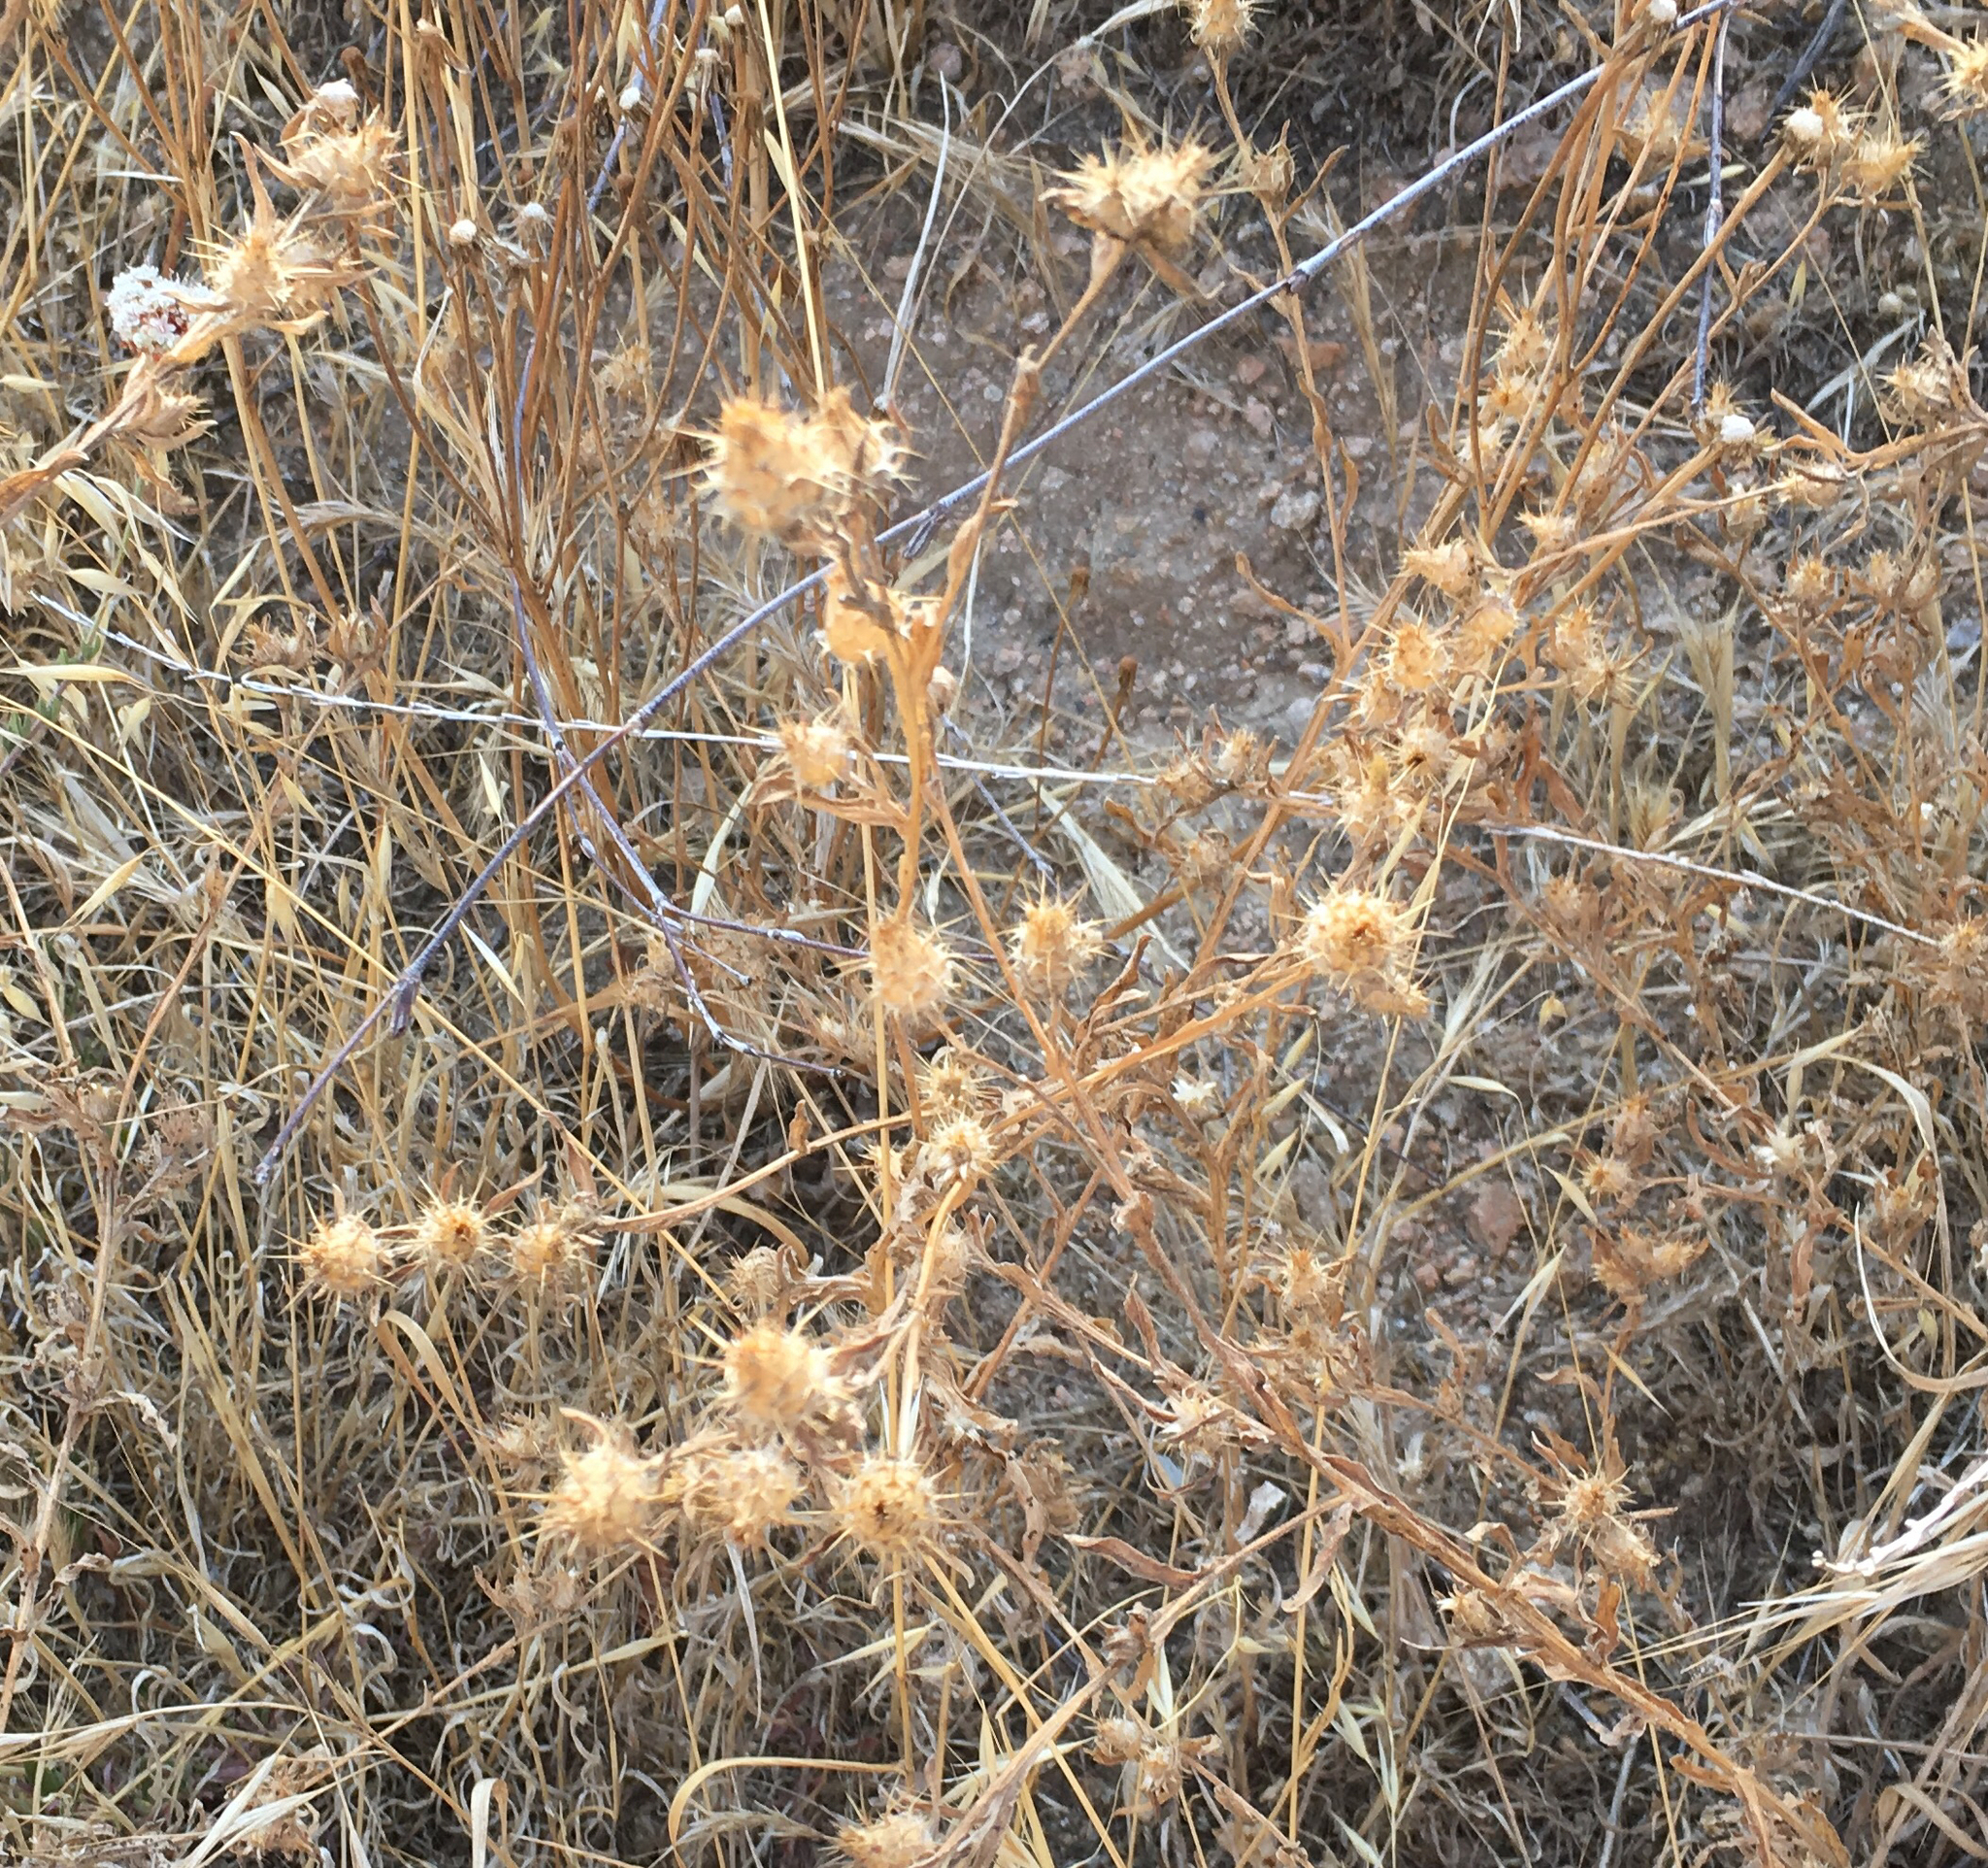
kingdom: Plantae
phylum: Tracheophyta
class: Magnoliopsida
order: Asterales
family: Asteraceae
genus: Centaurea
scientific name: Centaurea melitensis
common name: Maltese star-thistle
